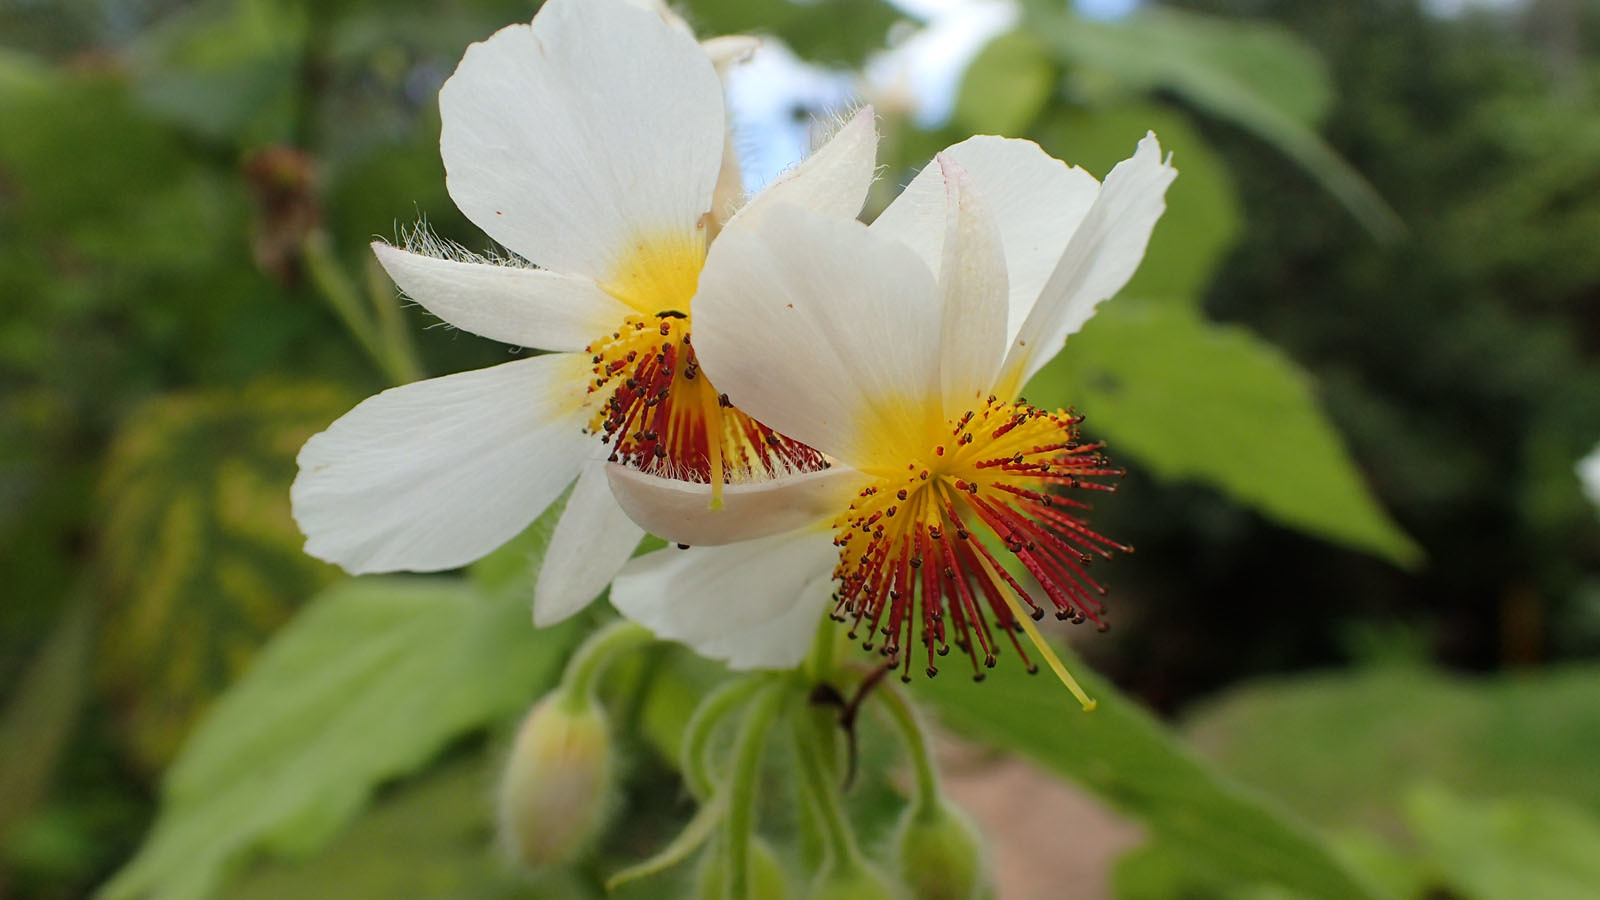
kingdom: Plantae
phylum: Tracheophyta
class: Magnoliopsida
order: Malvales
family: Malvaceae
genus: Sparrmannia
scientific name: Sparrmannia africana
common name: African-hemp
